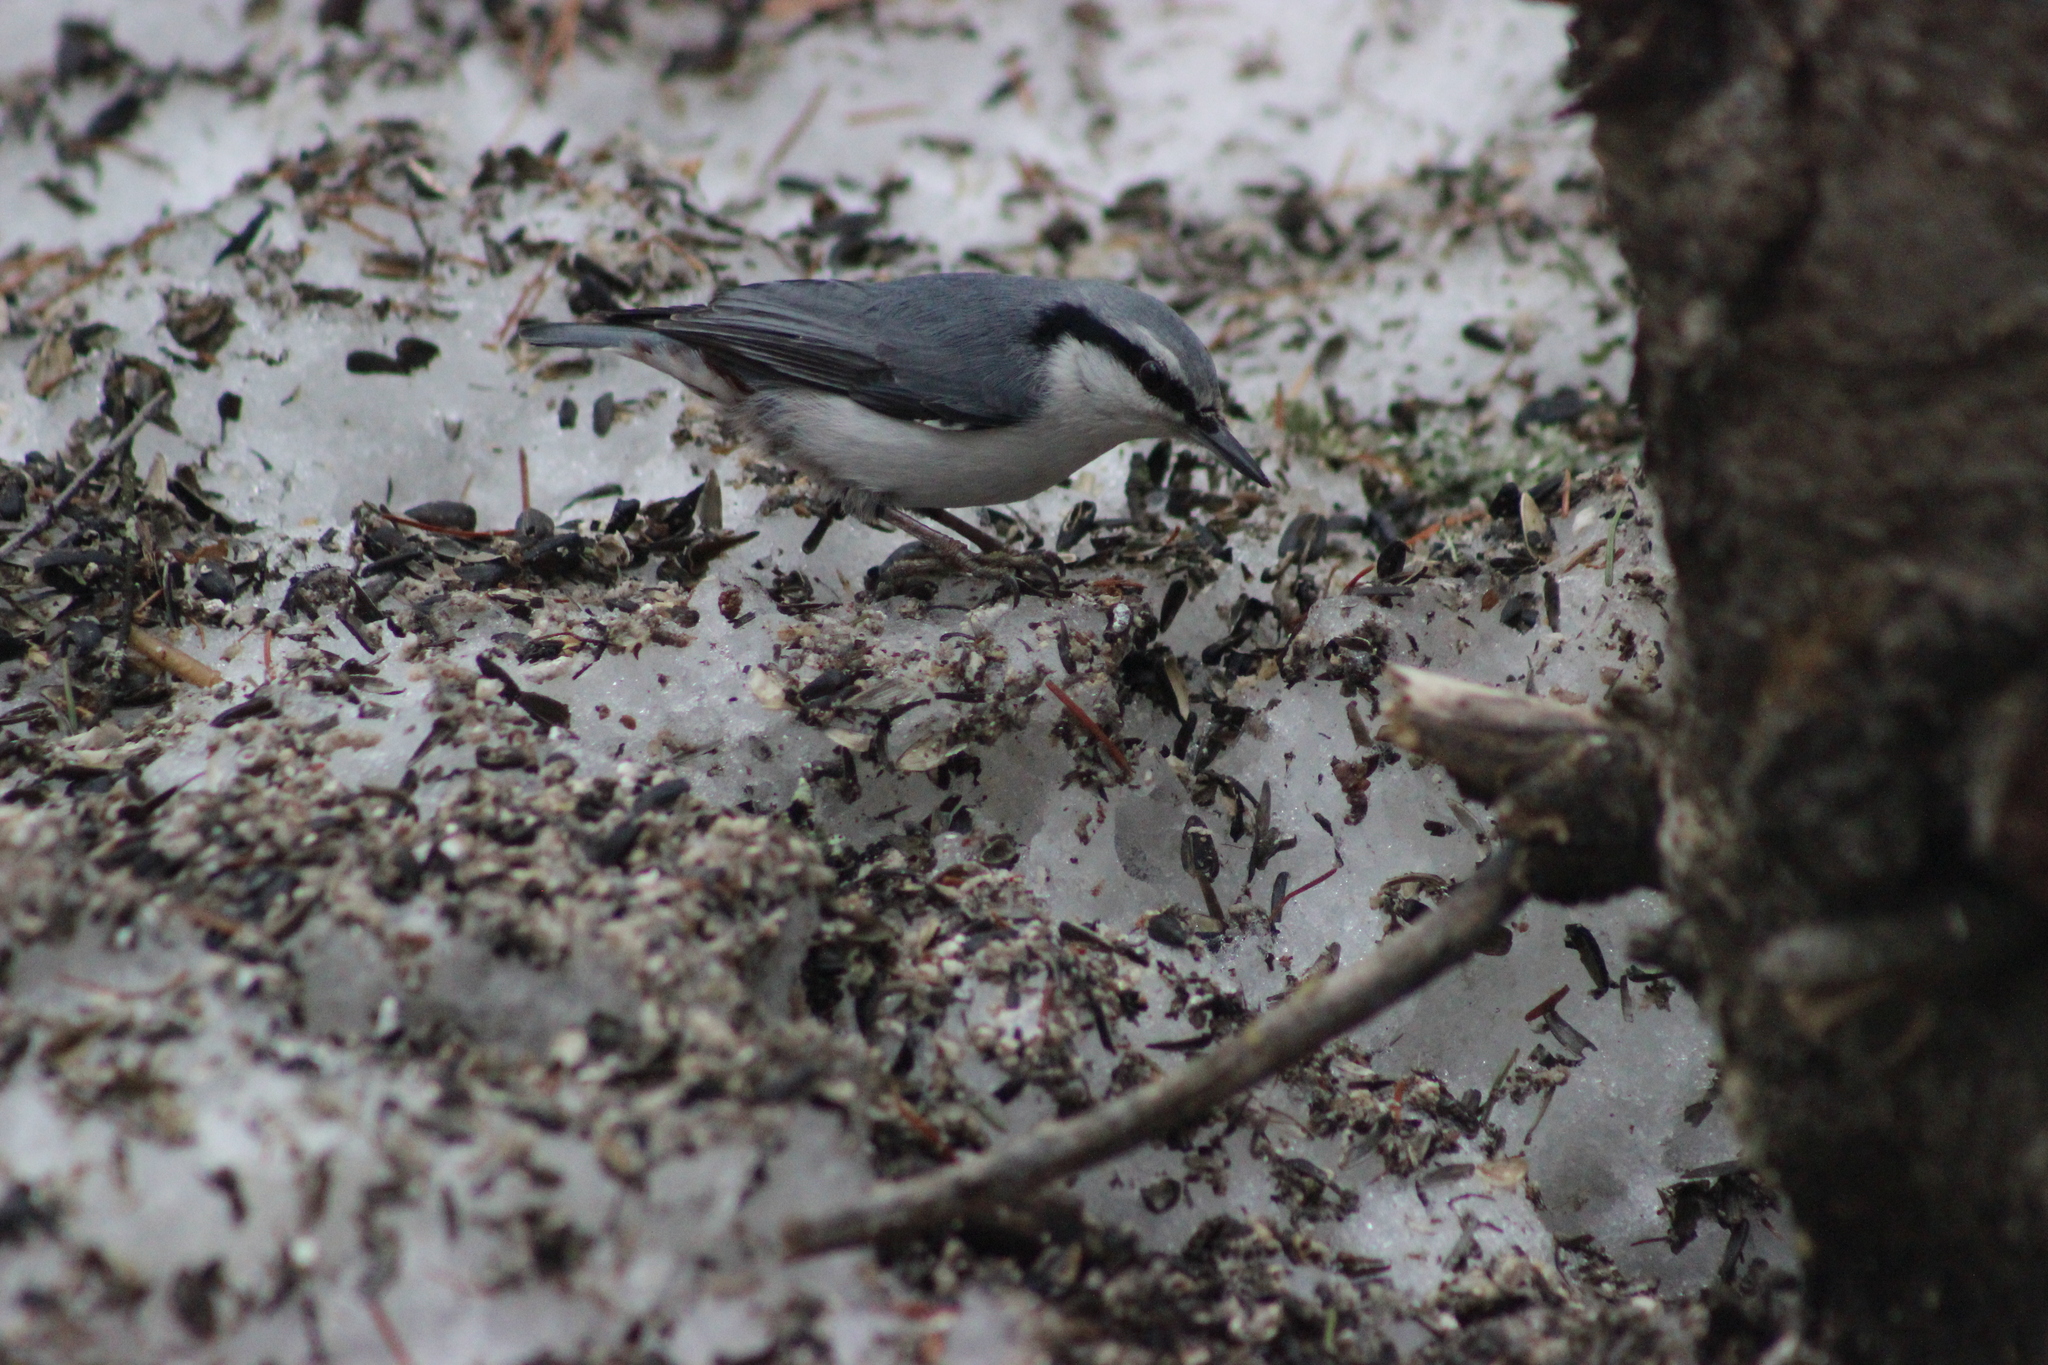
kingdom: Animalia
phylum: Chordata
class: Aves
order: Passeriformes
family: Sittidae
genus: Sitta
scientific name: Sitta europaea
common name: Eurasian nuthatch
